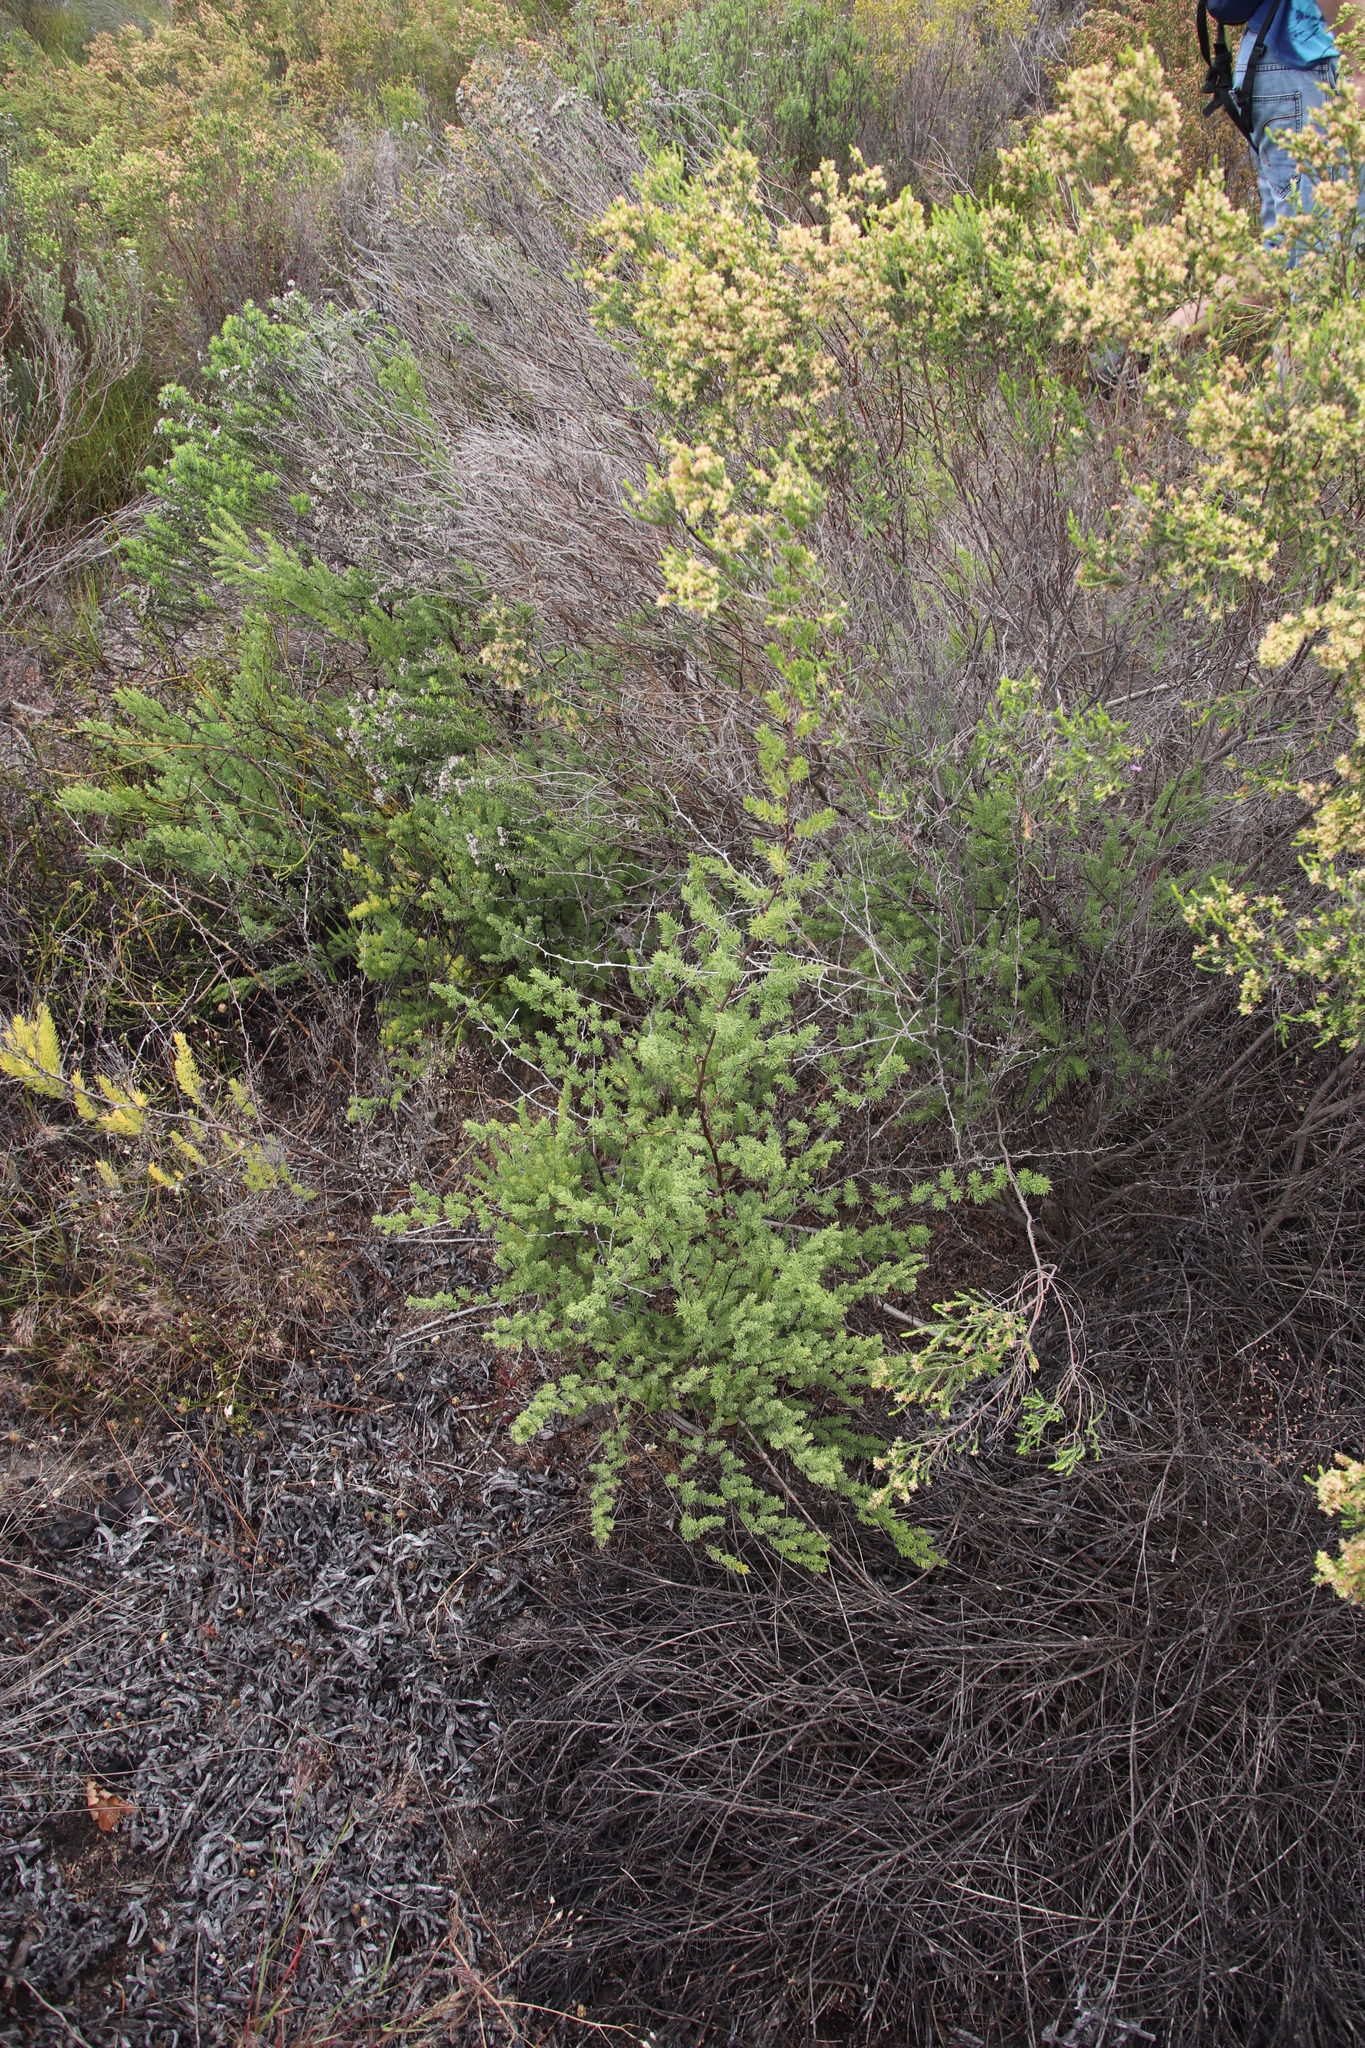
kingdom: Plantae
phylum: Tracheophyta
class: Liliopsida
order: Asparagales
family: Asparagaceae
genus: Asparagus
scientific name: Asparagus rubicundus
